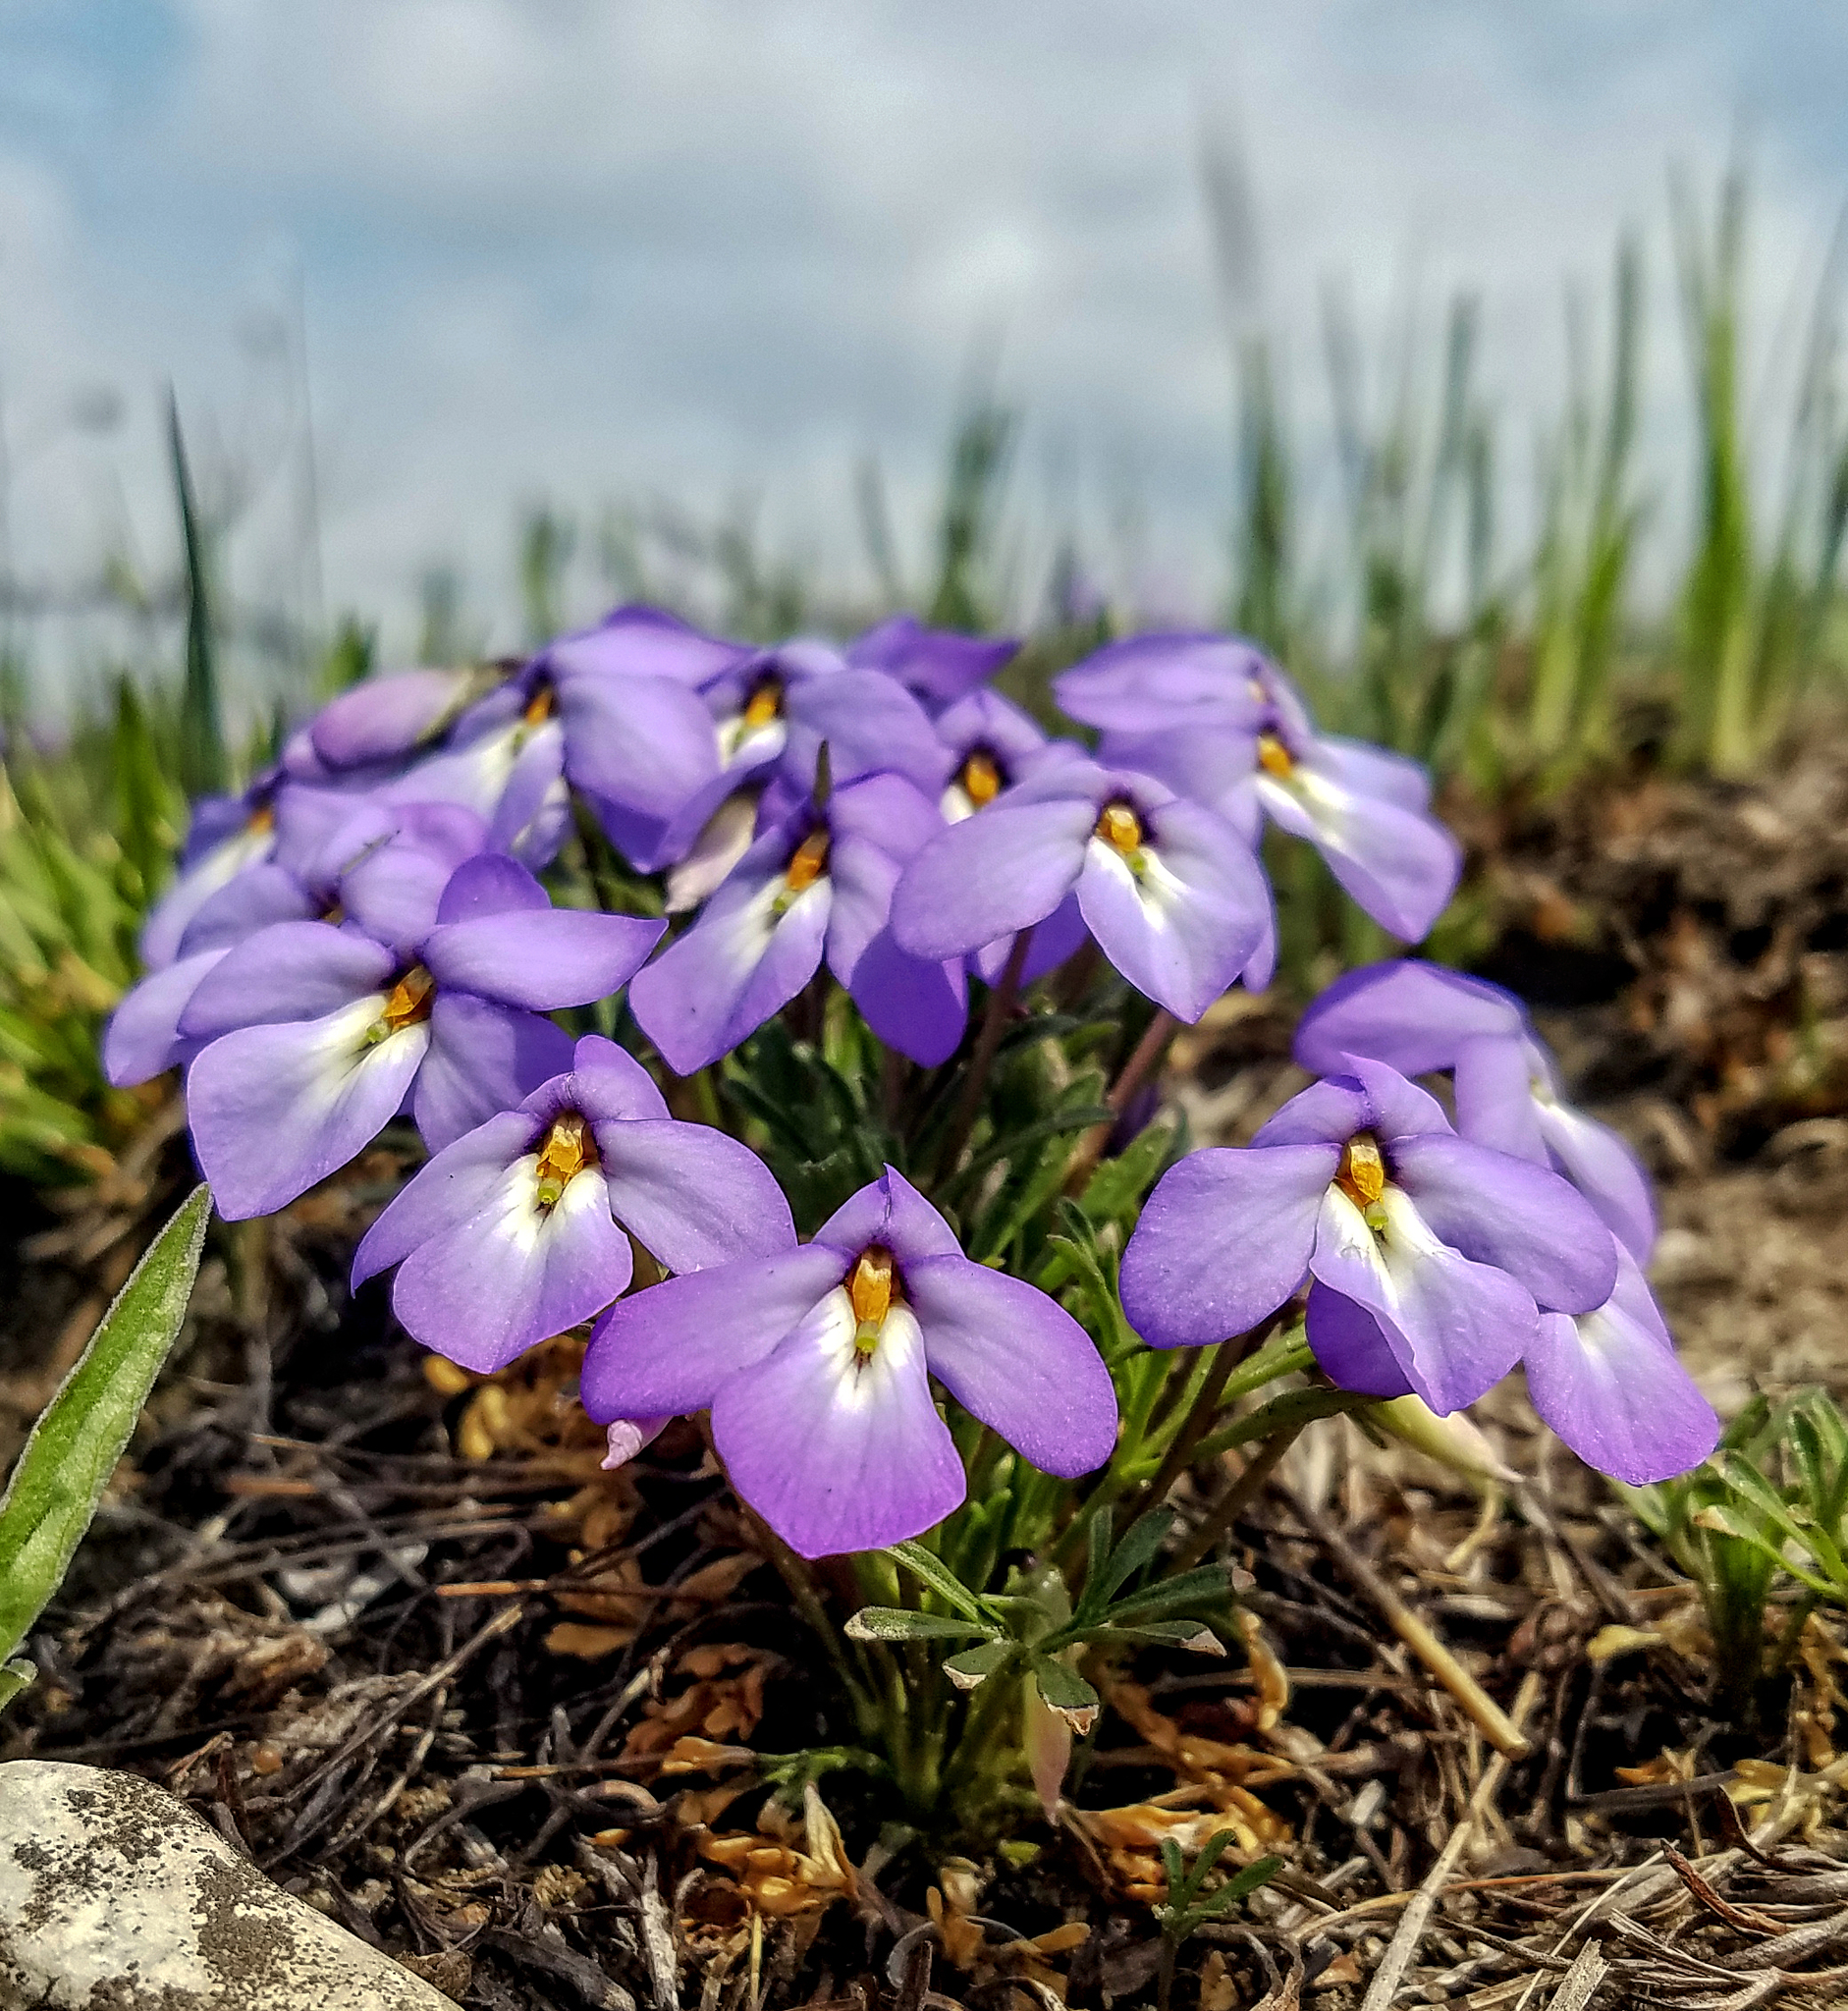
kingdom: Plantae
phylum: Tracheophyta
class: Magnoliopsida
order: Malpighiales
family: Violaceae
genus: Viola
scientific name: Viola pedata
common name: Pansy violet
